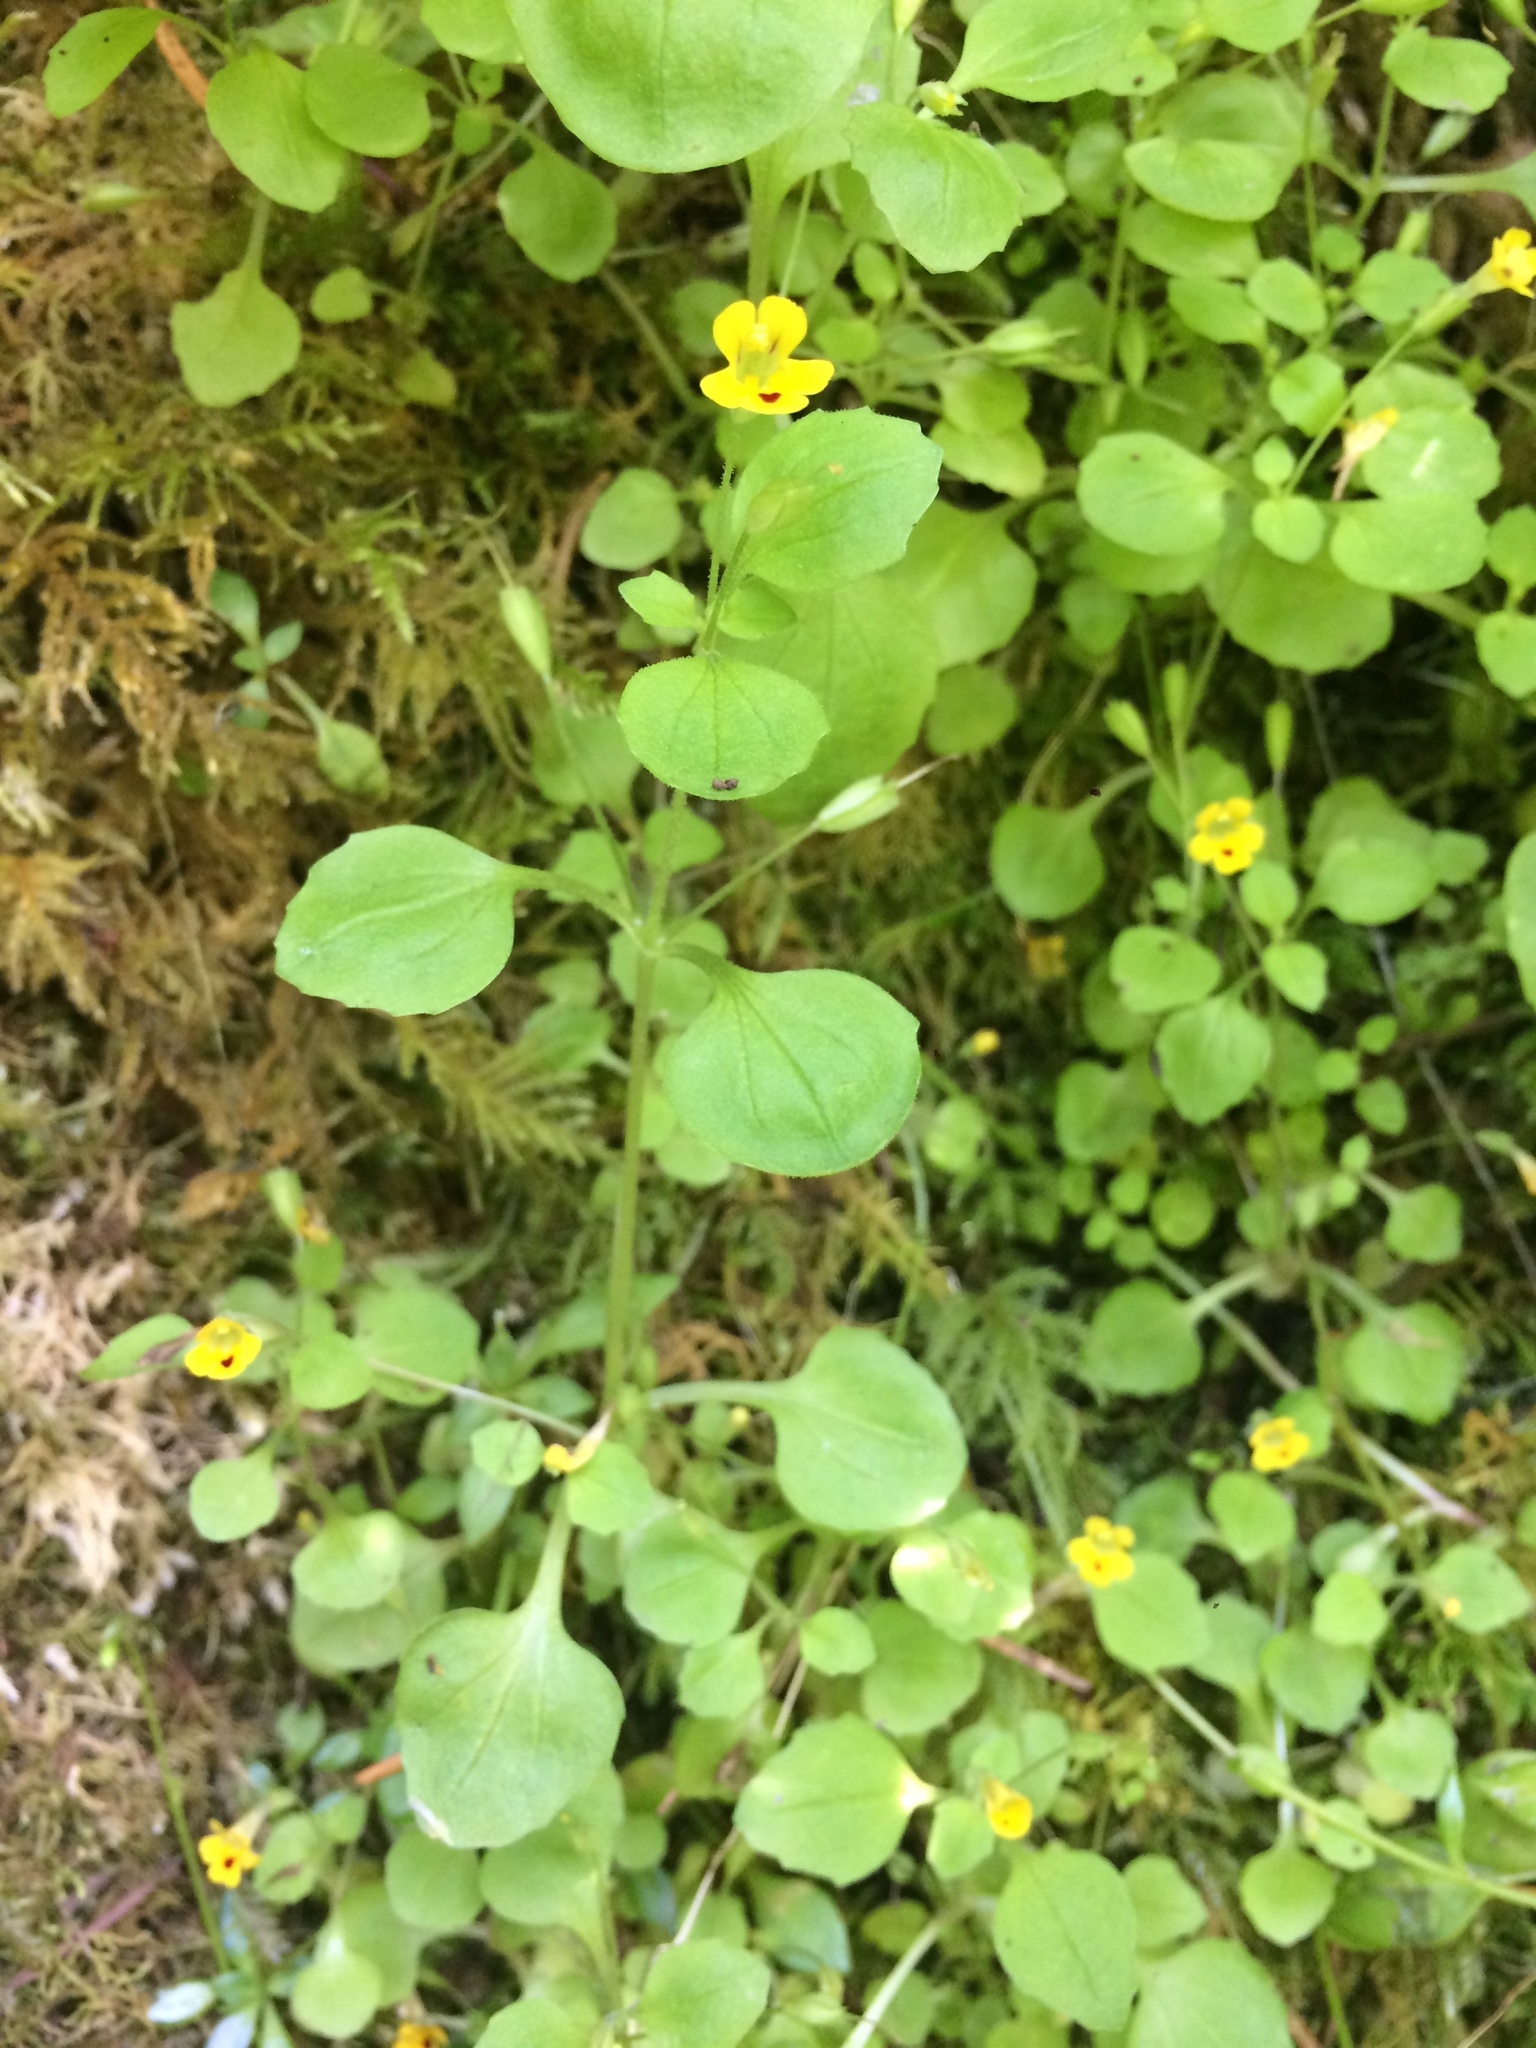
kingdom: Plantae
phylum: Tracheophyta
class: Magnoliopsida
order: Lamiales
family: Phrymaceae
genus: Erythranthe
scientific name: Erythranthe alsinoides
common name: Chickweed monkeyflower
